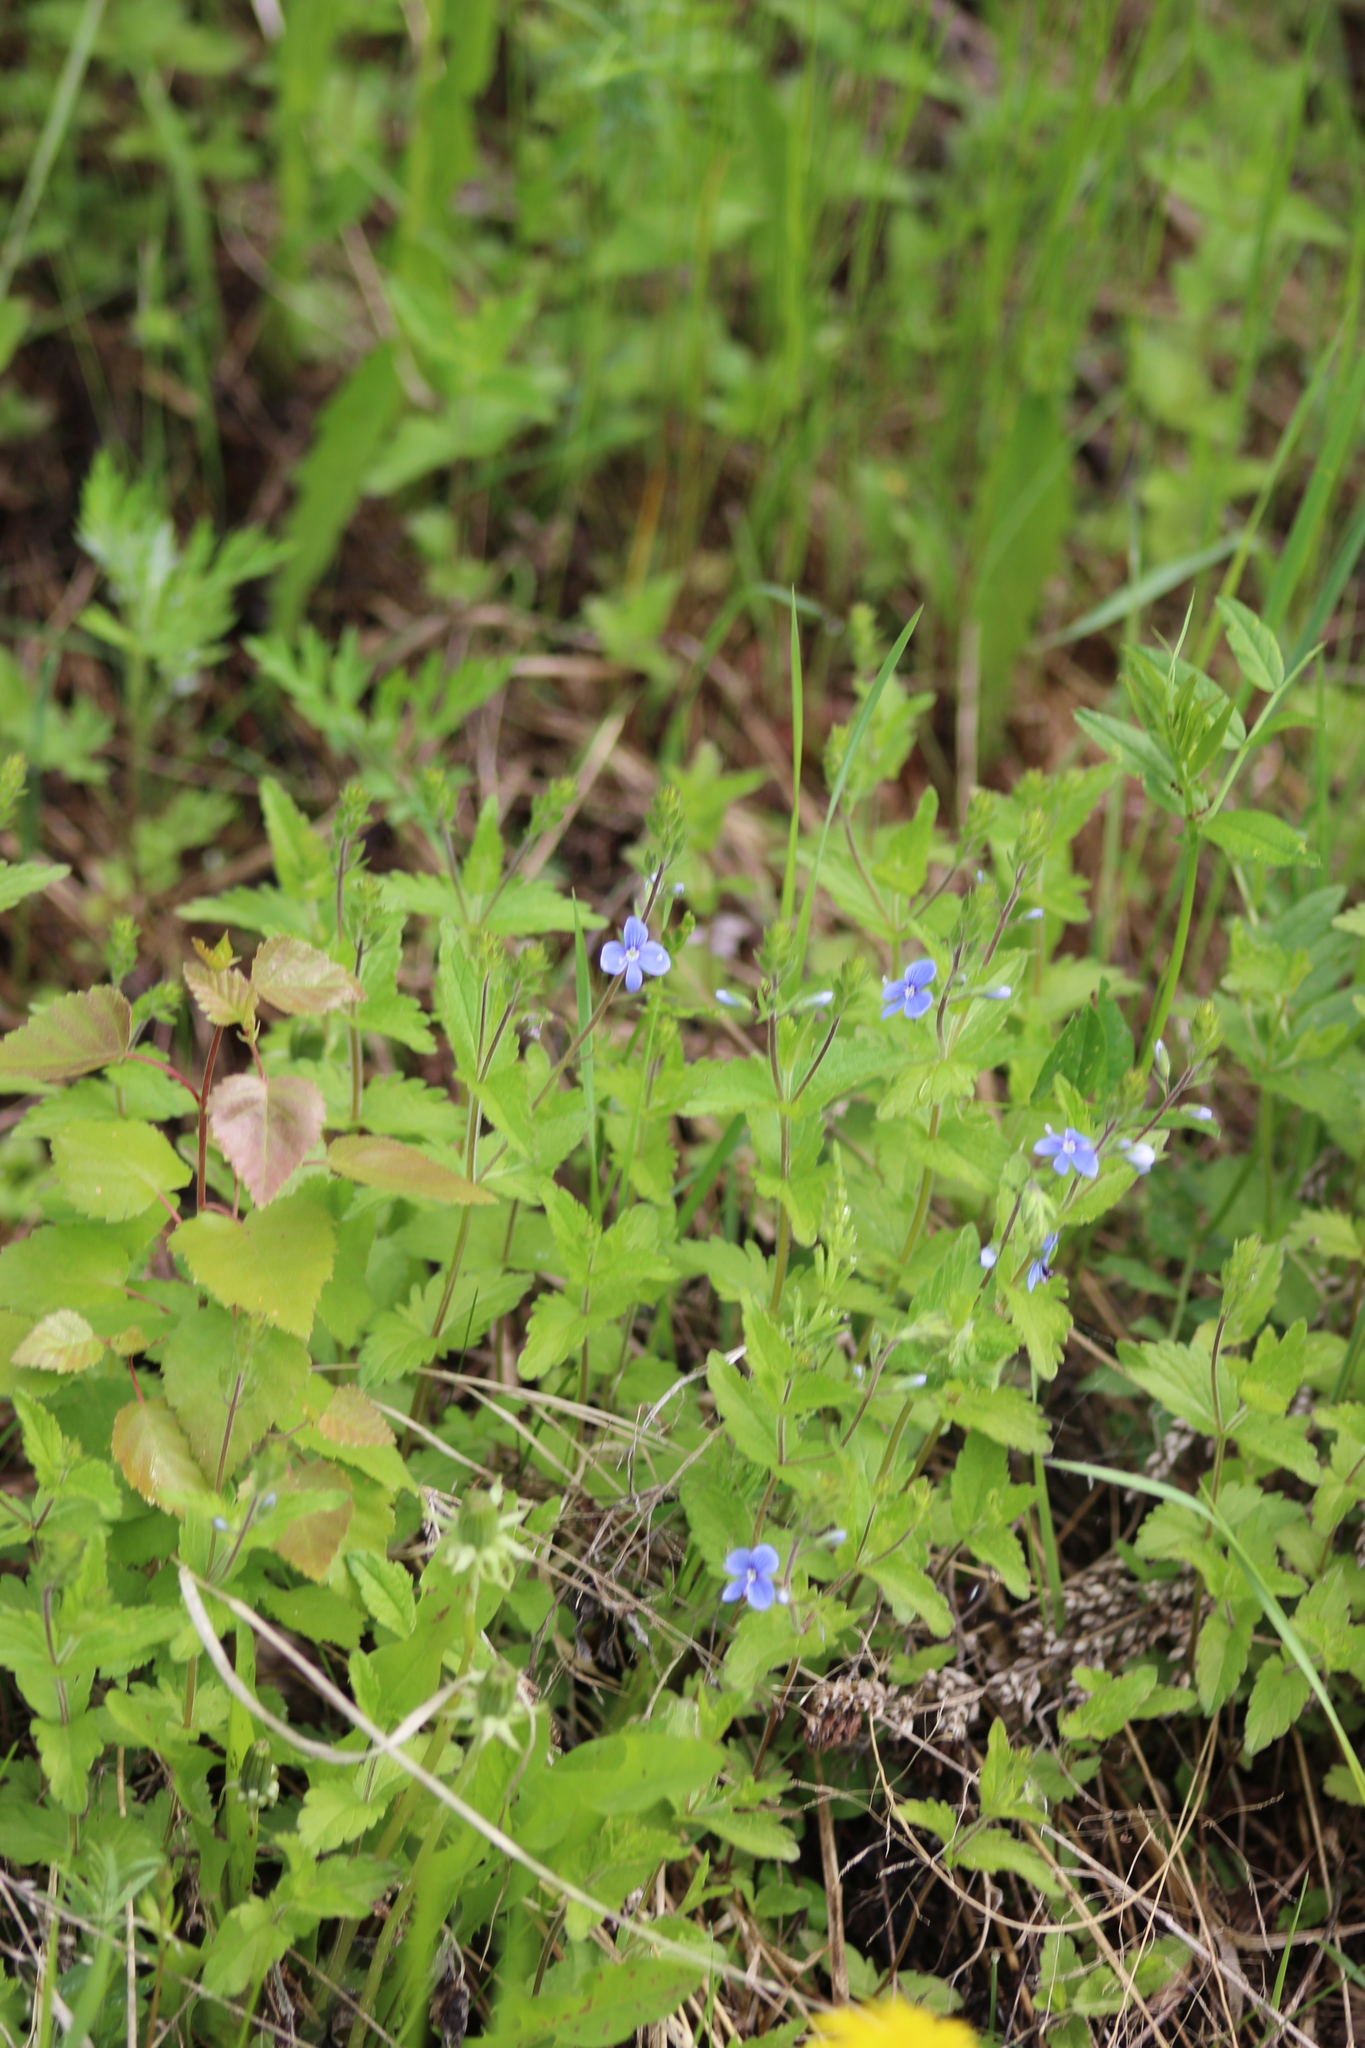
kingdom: Plantae
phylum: Tracheophyta
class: Magnoliopsida
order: Lamiales
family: Plantaginaceae
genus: Veronica
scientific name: Veronica chamaedrys
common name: Germander speedwell
